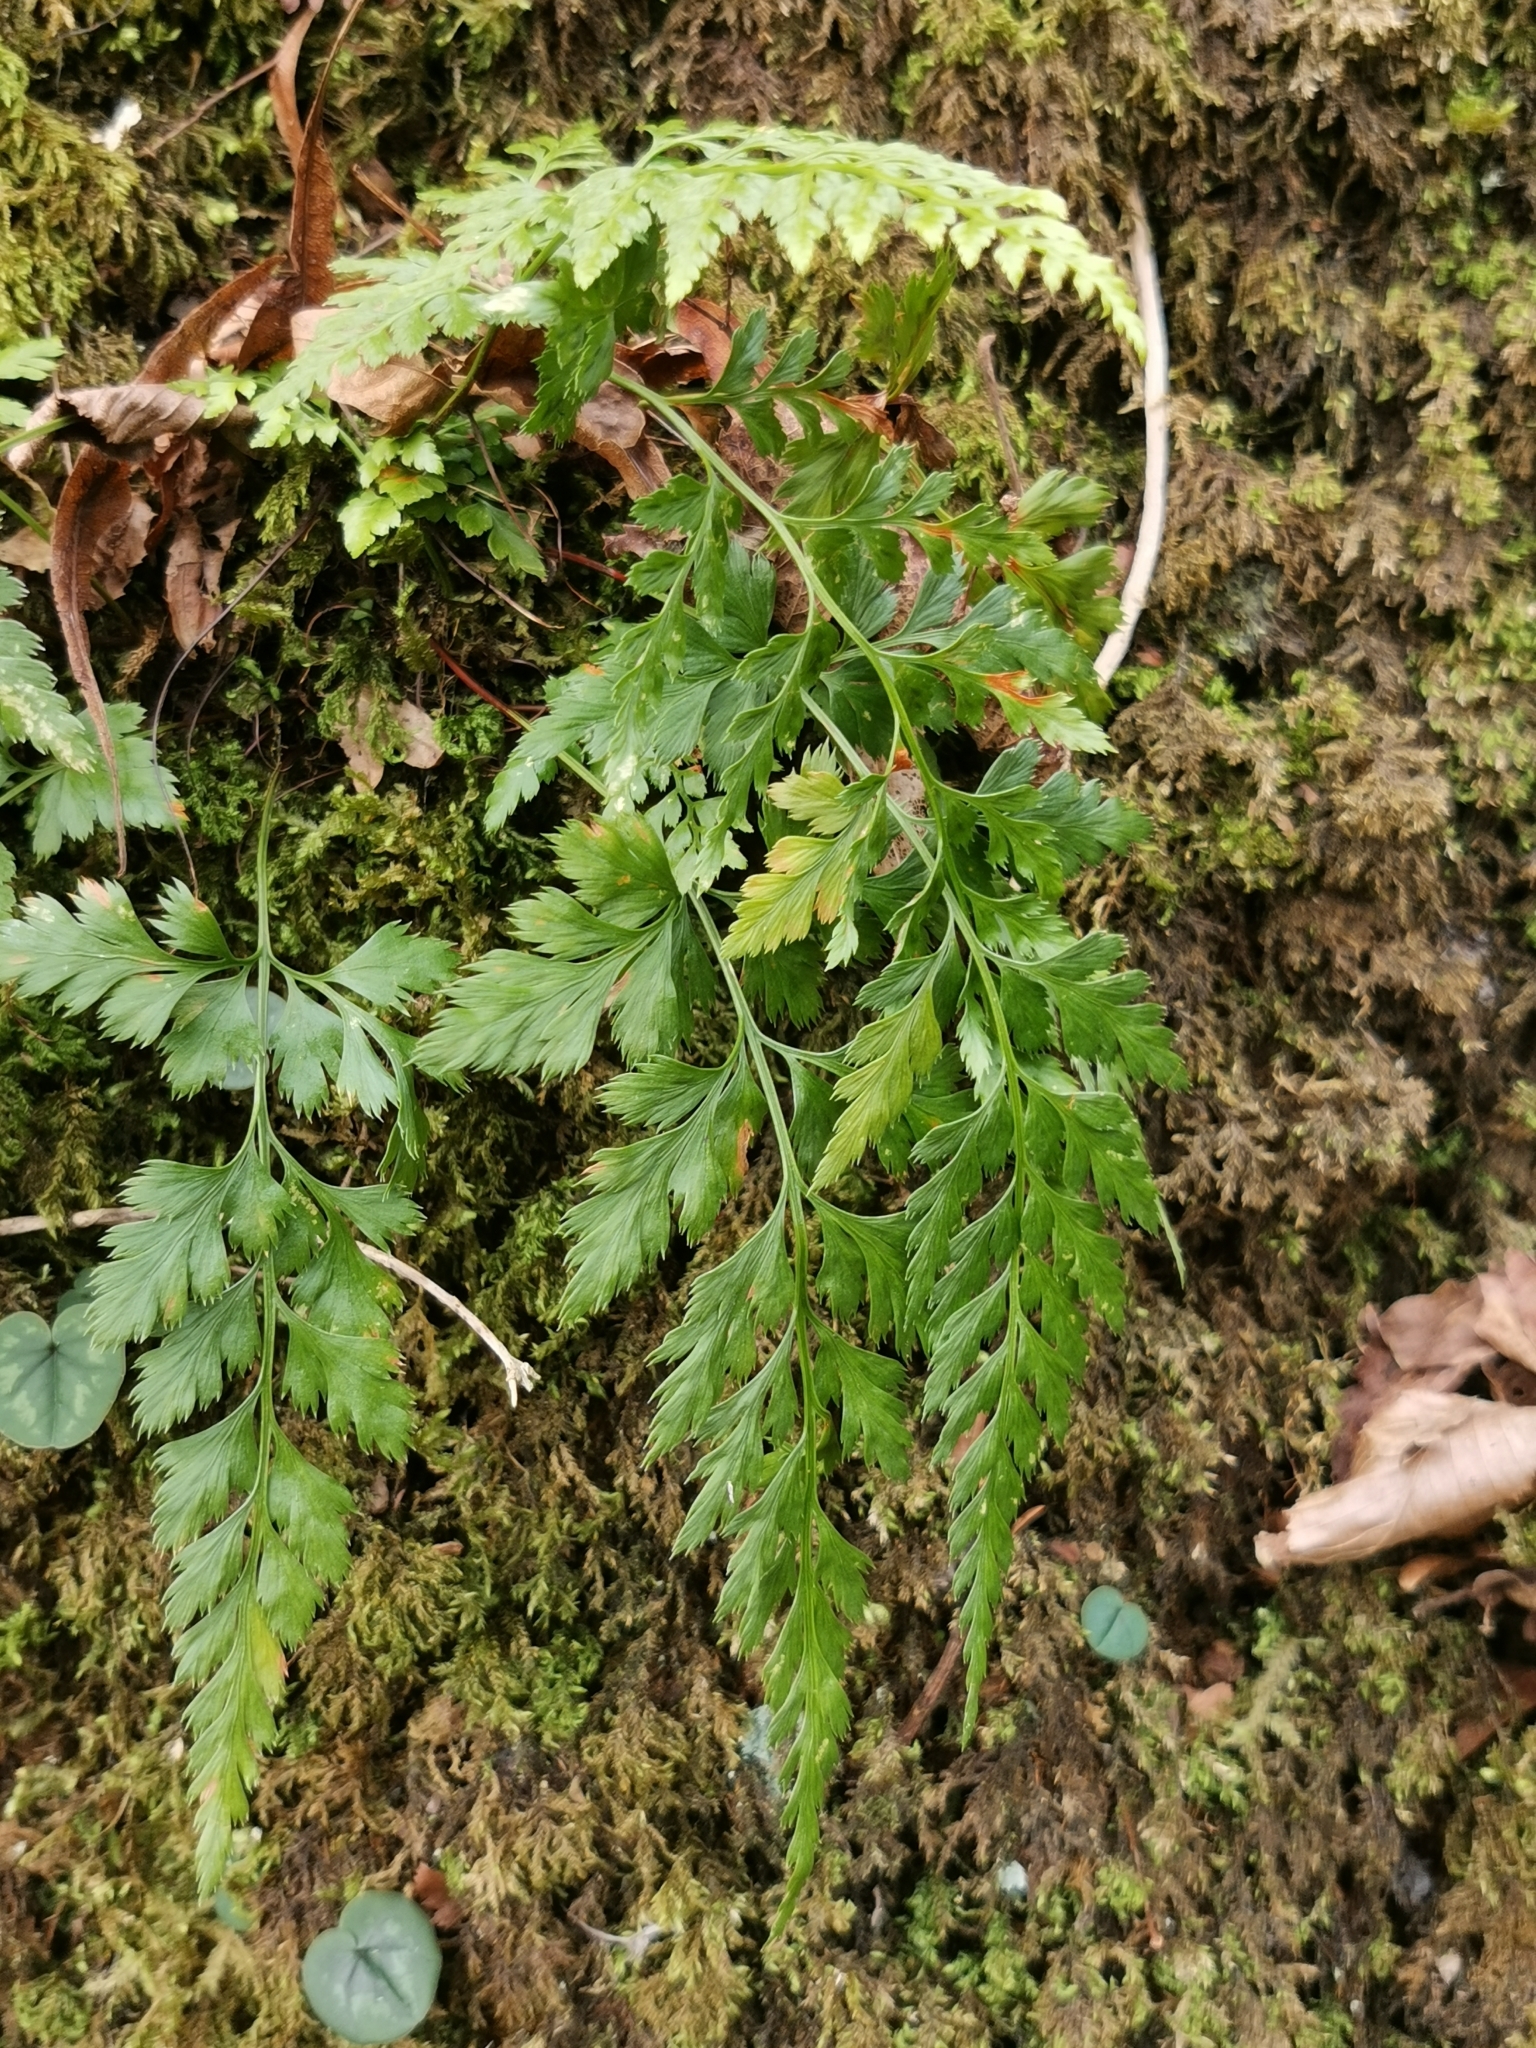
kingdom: Plantae
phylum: Tracheophyta
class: Polypodiopsida
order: Polypodiales
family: Aspleniaceae
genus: Asplenium
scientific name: Asplenium adiantum-nigrum
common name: Black spleenwort
